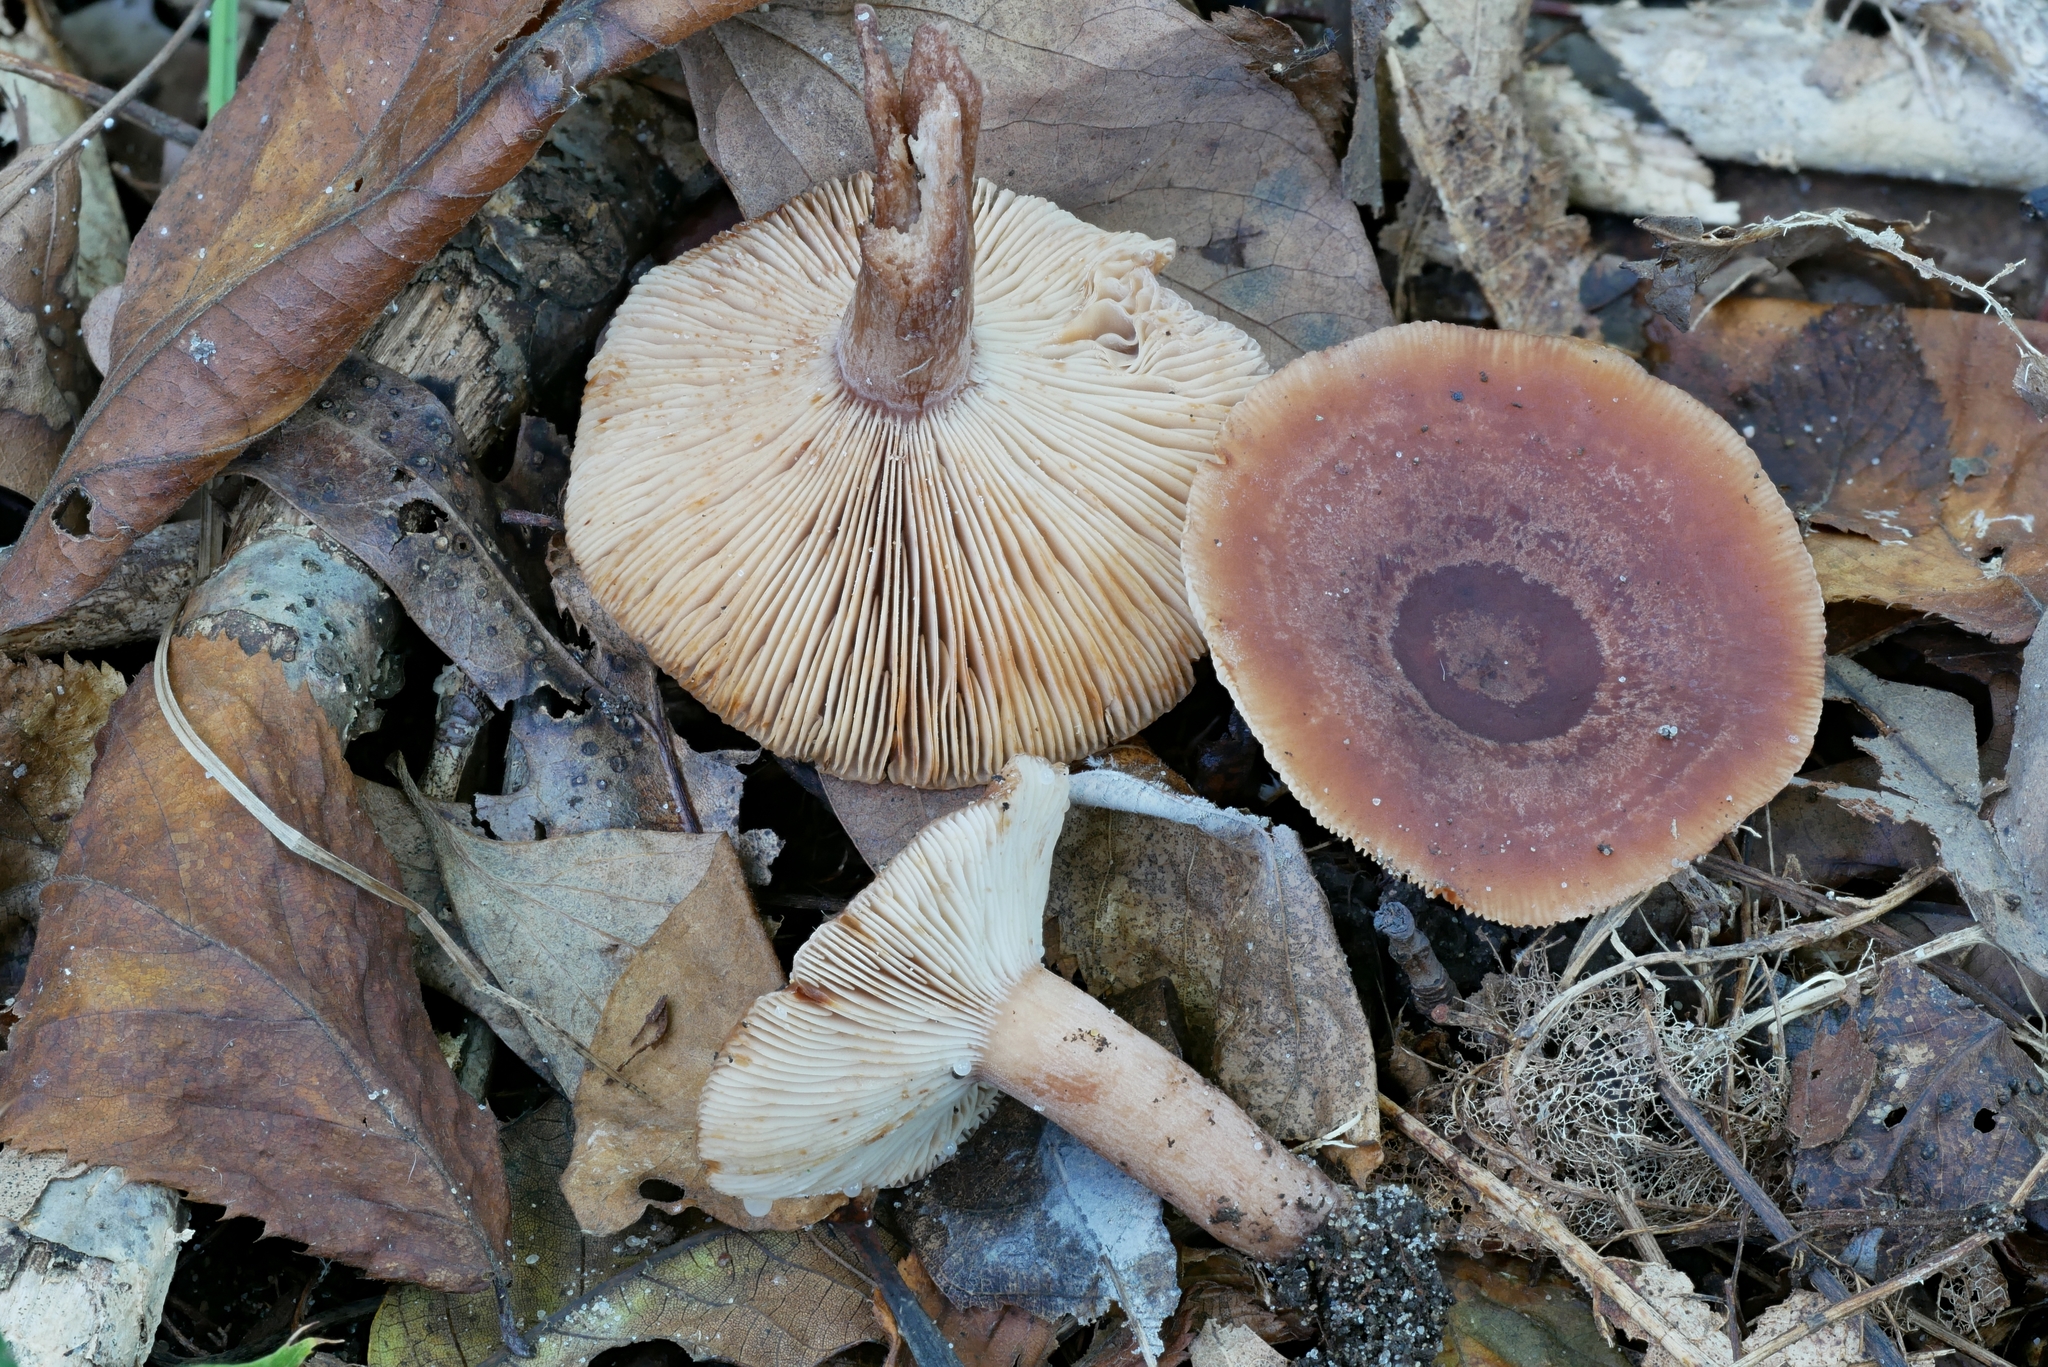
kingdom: Fungi
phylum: Basidiomycota
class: Agaricomycetes
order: Russulales
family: Russulaceae
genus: Lactarius
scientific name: Lactarius mutabilis
